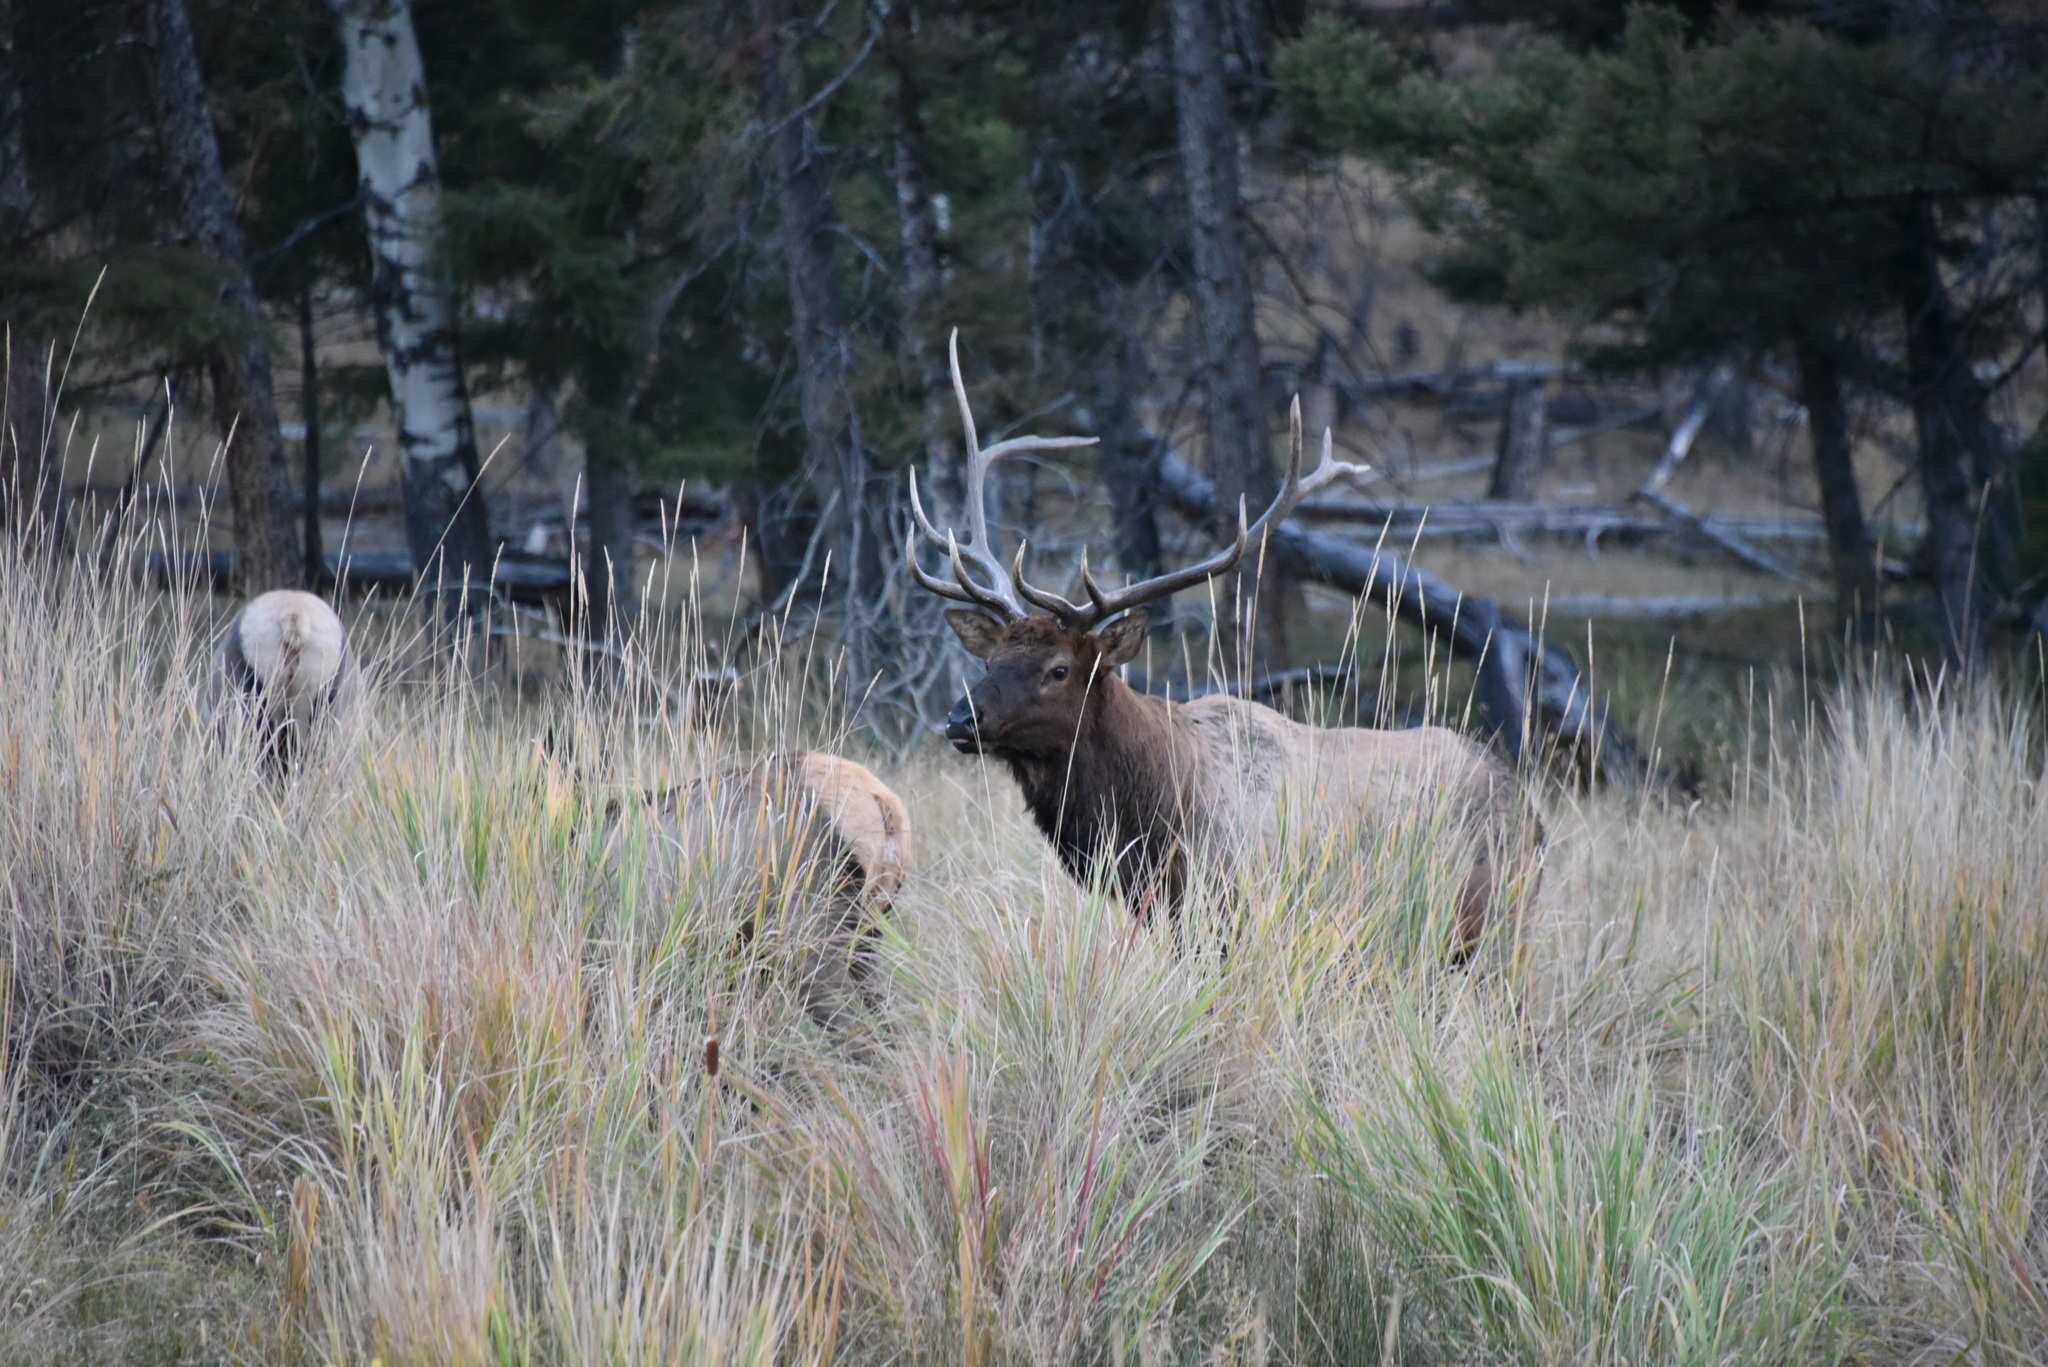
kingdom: Animalia
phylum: Chordata
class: Mammalia
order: Artiodactyla
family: Cervidae
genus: Cervus
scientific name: Cervus elaphus
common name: Red deer
